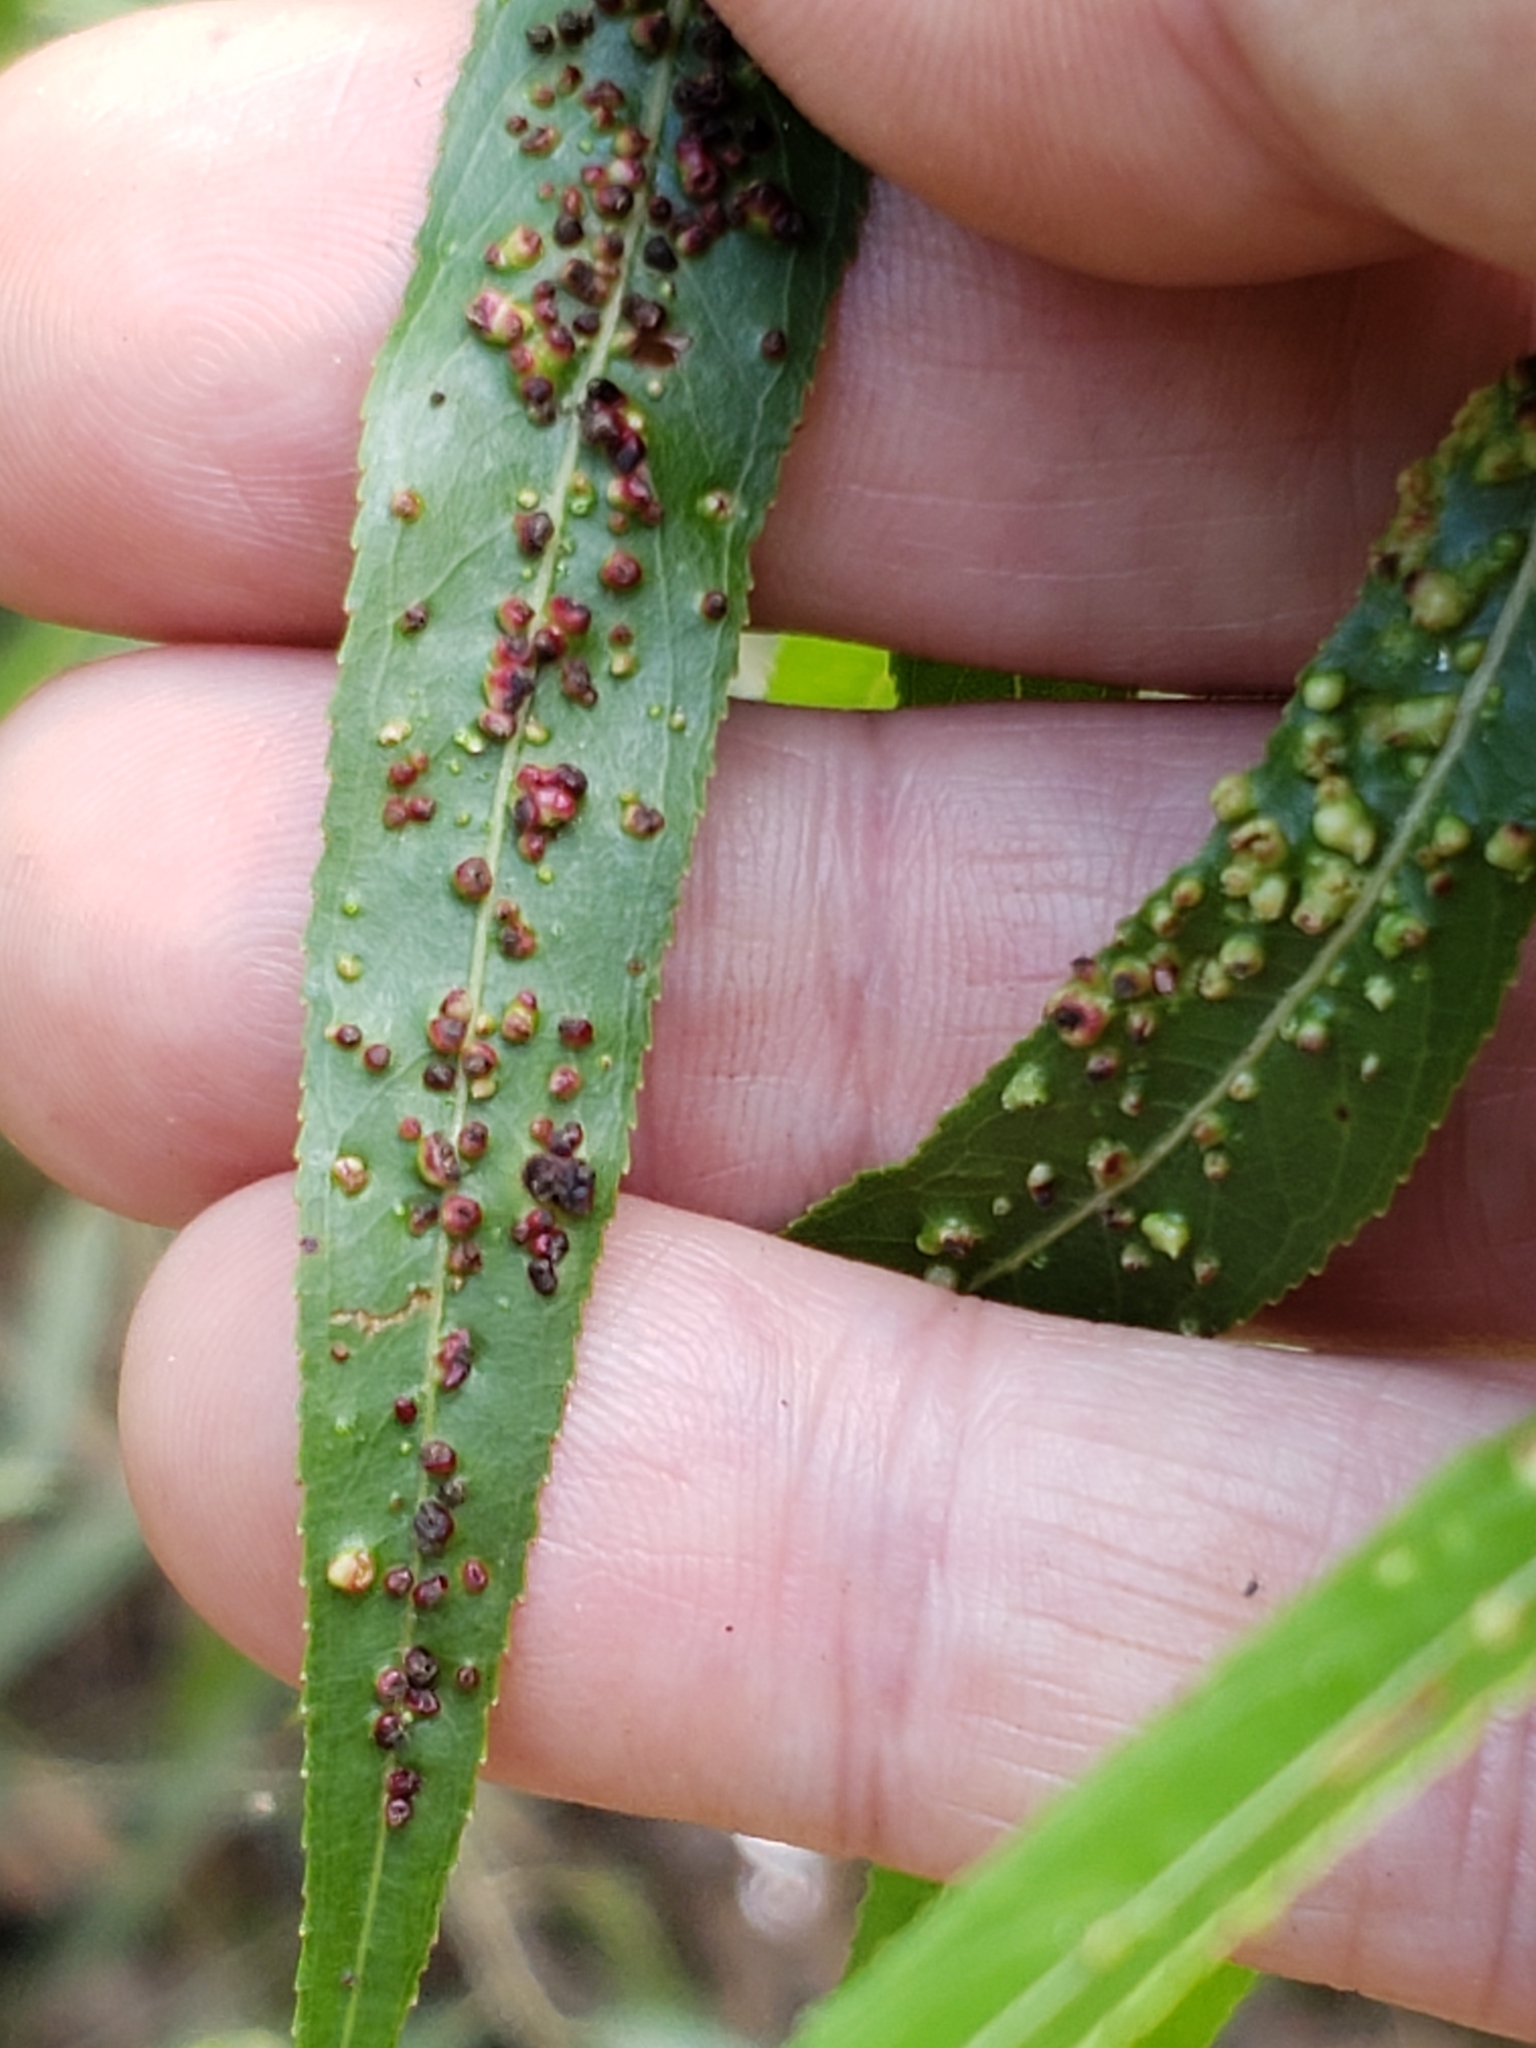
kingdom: Animalia
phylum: Arthropoda
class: Arachnida
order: Trombidiformes
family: Eriophyidae
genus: Aculus
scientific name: Aculus tetanothrix
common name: Willow bead gall mite
